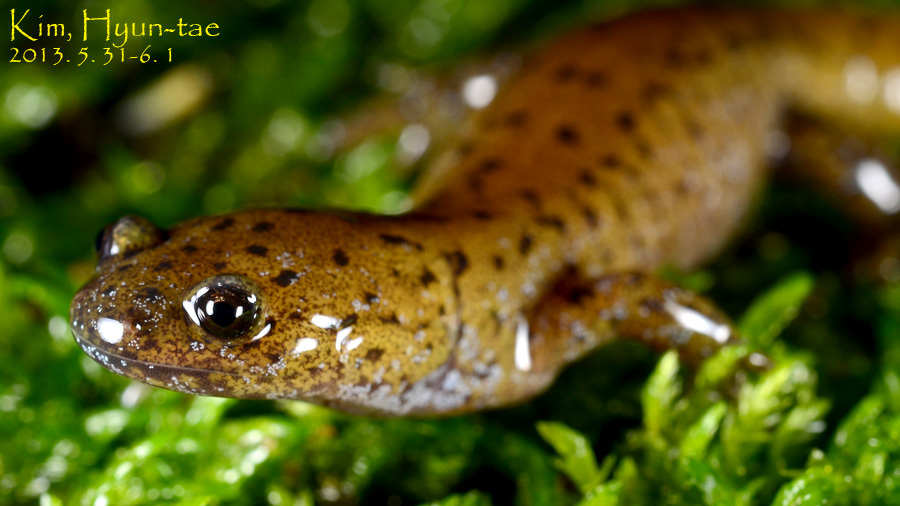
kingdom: Animalia
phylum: Chordata
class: Amphibia
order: Caudata
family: Hynobiidae
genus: Hynobius
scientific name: Hynobius leechii
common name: Gensan salamander
